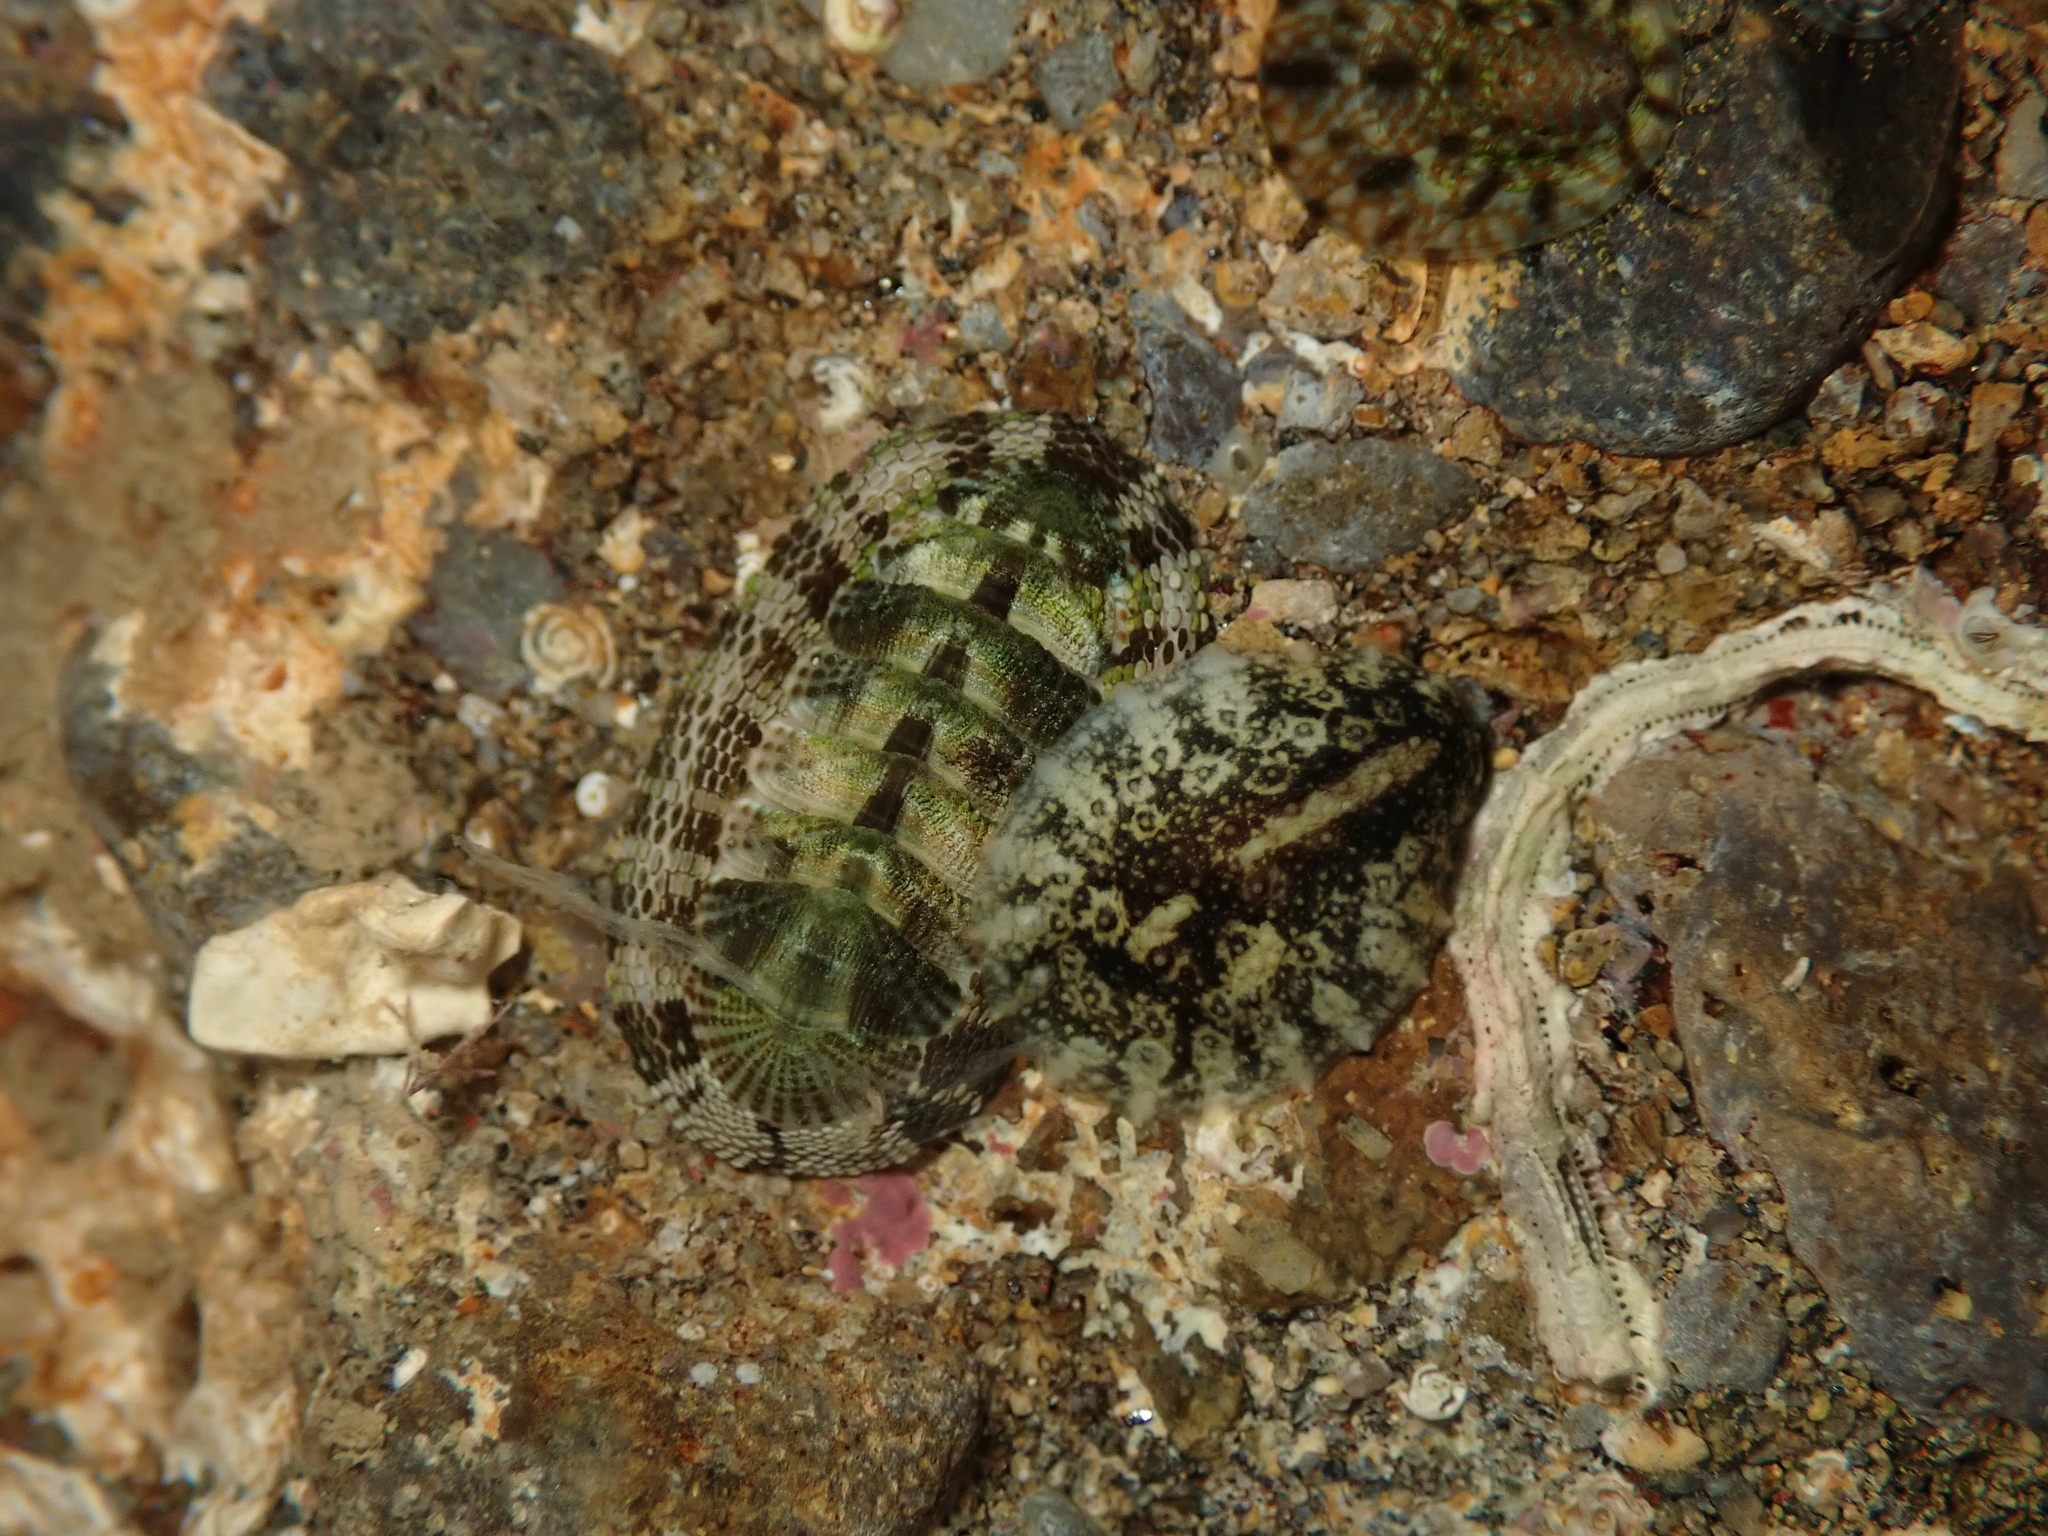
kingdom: Animalia
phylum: Mollusca
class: Polyplacophora
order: Chitonida
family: Chitonidae
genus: Sypharochiton
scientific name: Sypharochiton pelliserpentis
